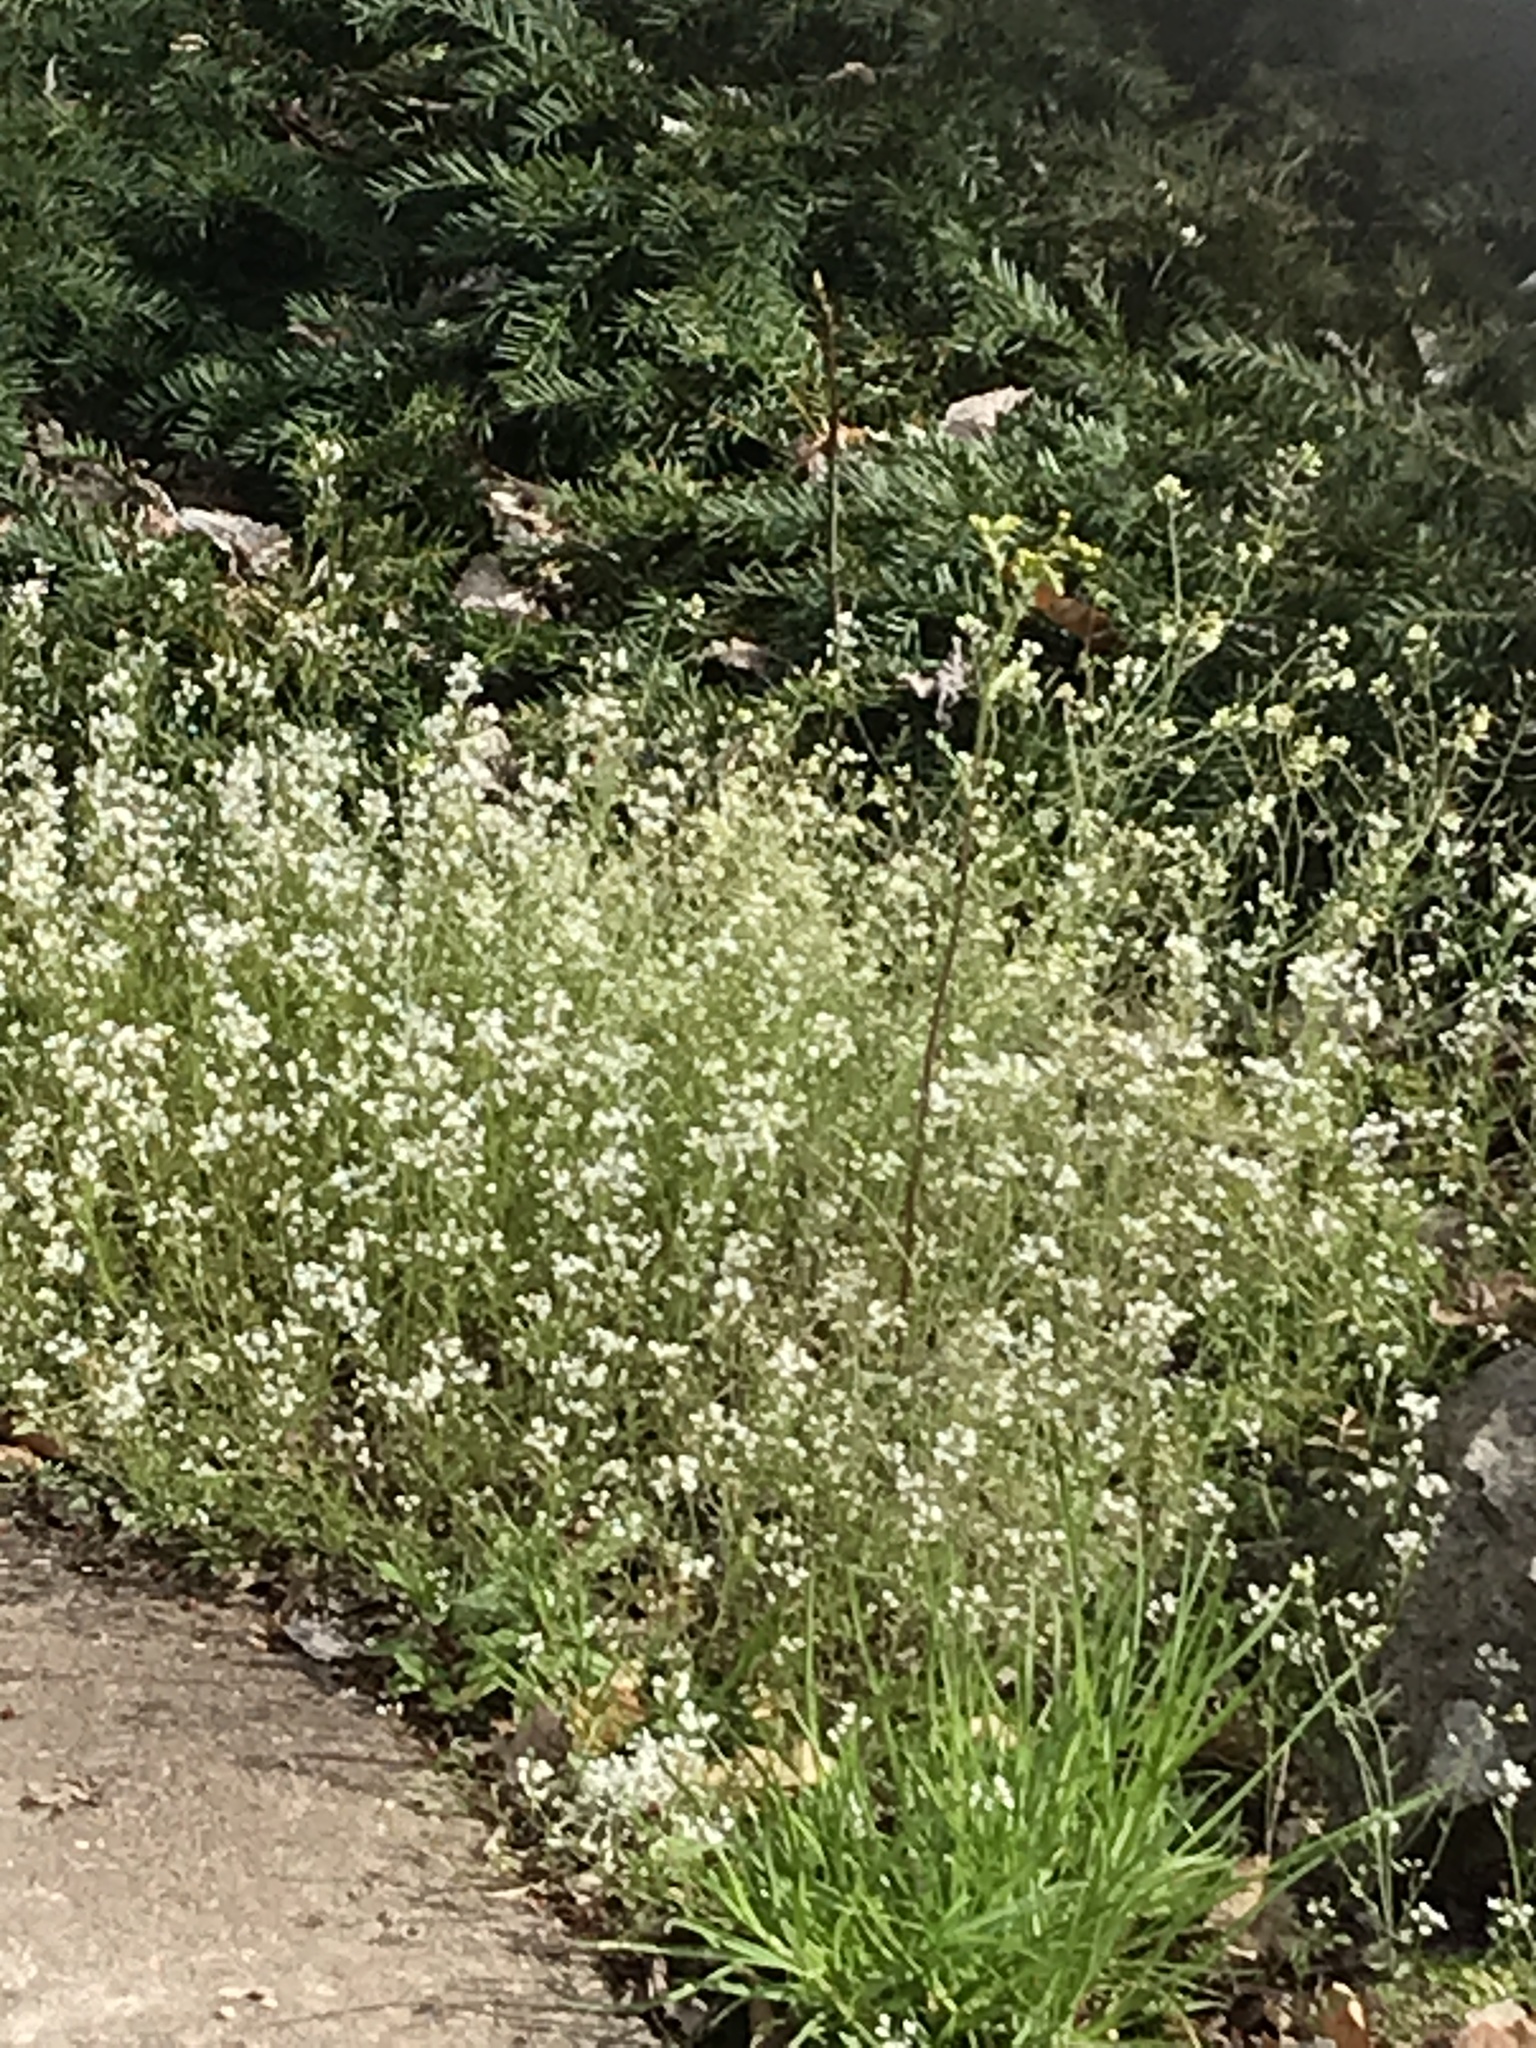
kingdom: Plantae
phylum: Tracheophyta
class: Magnoliopsida
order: Brassicales
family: Brassicaceae
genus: Cardamine
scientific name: Cardamine flexuosa
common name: Woodland bittercress
